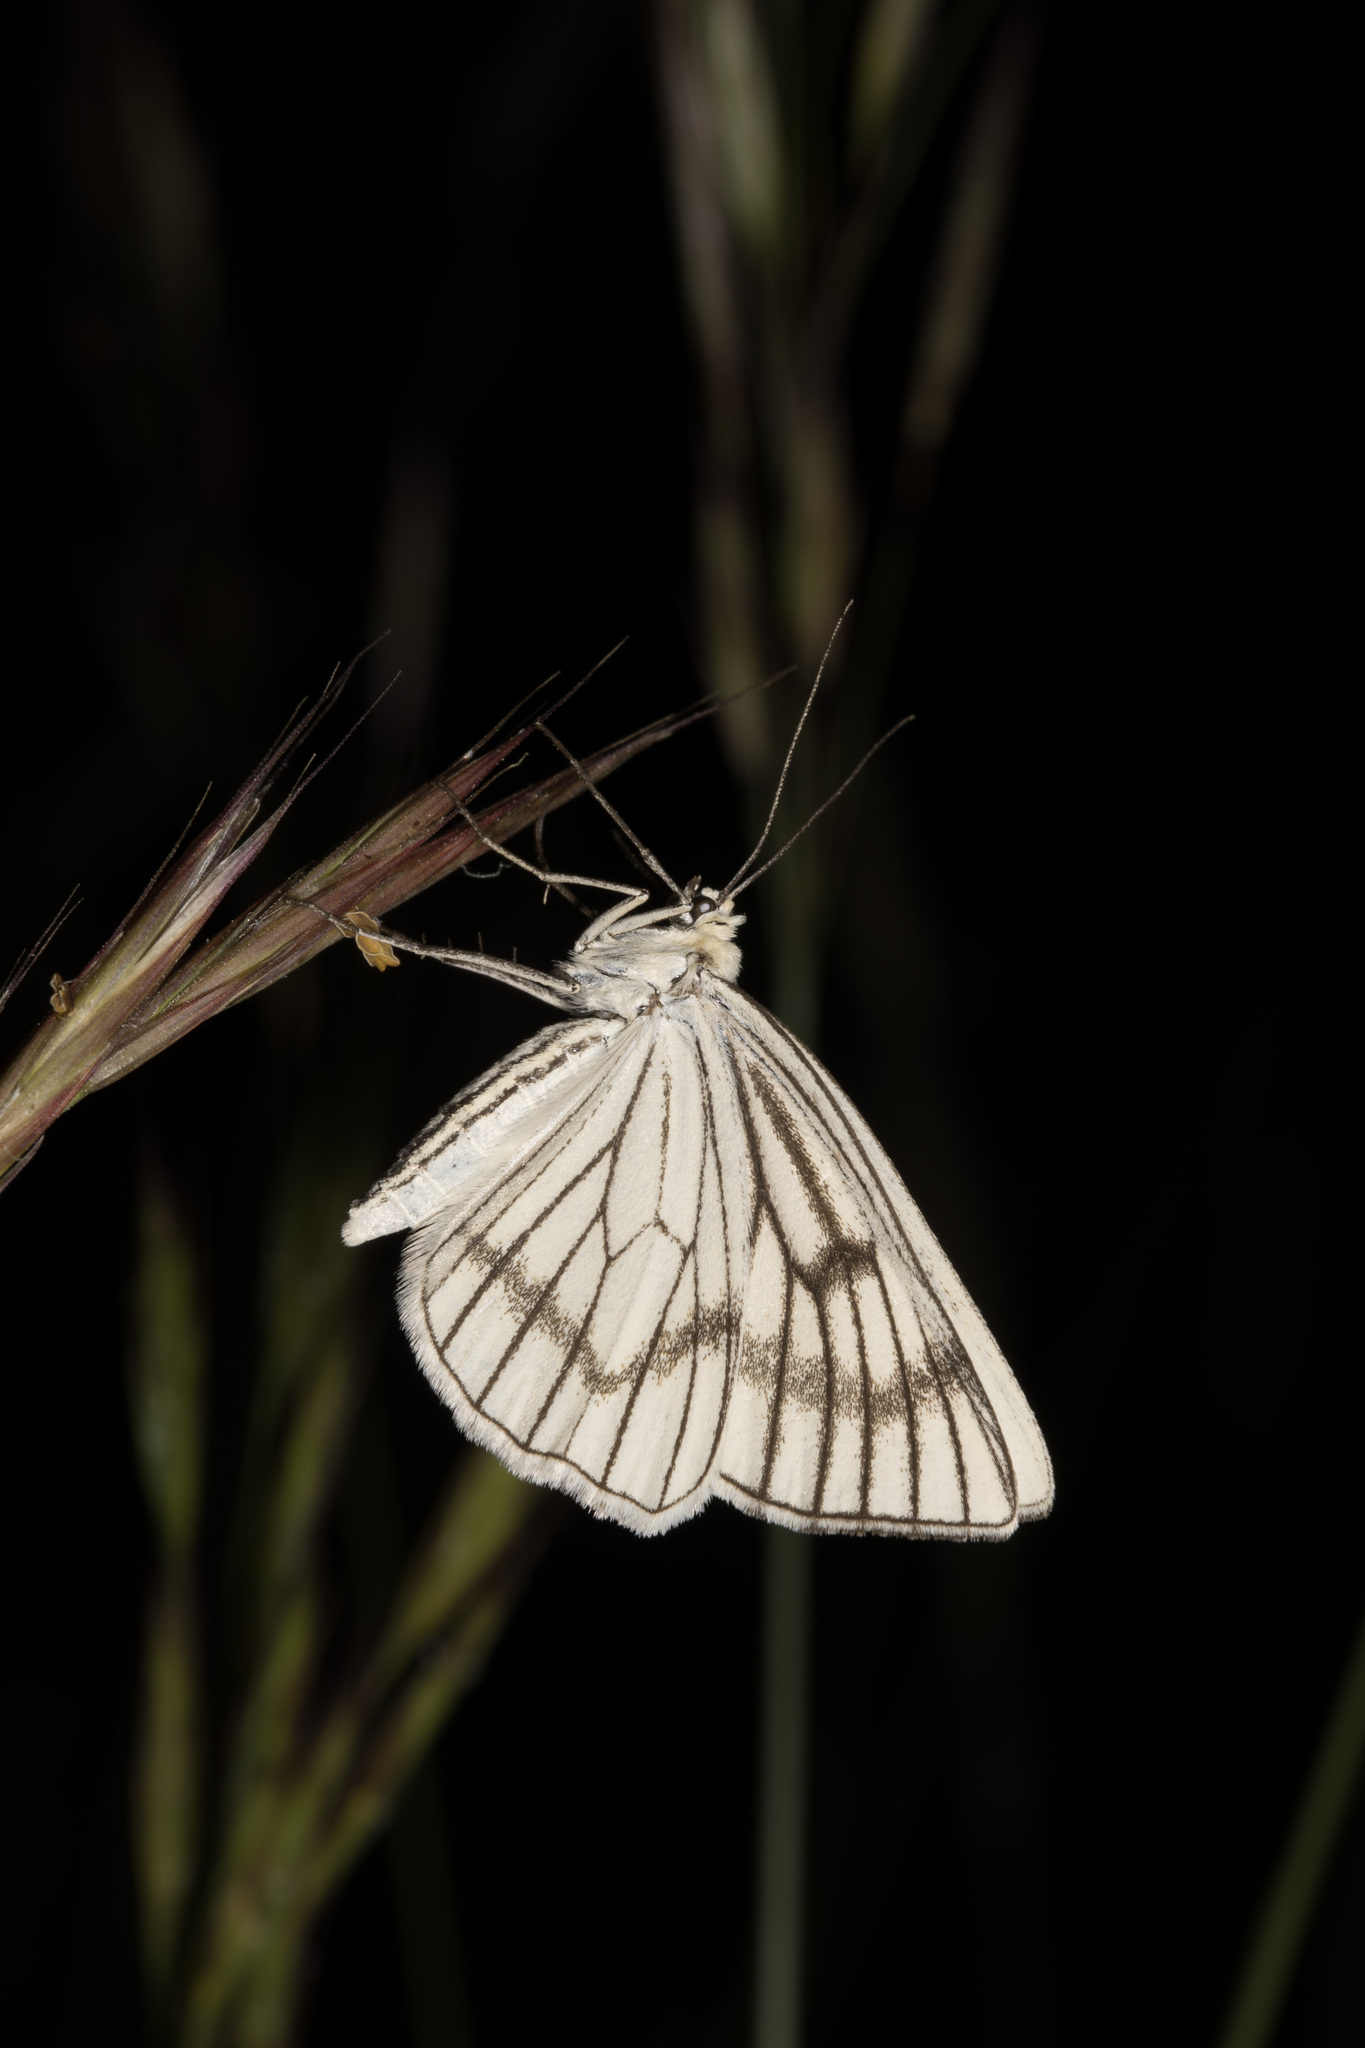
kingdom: Animalia
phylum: Arthropoda
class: Insecta
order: Lepidoptera
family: Geometridae
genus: Siona
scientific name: Siona lineata
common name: Black-veined moth
